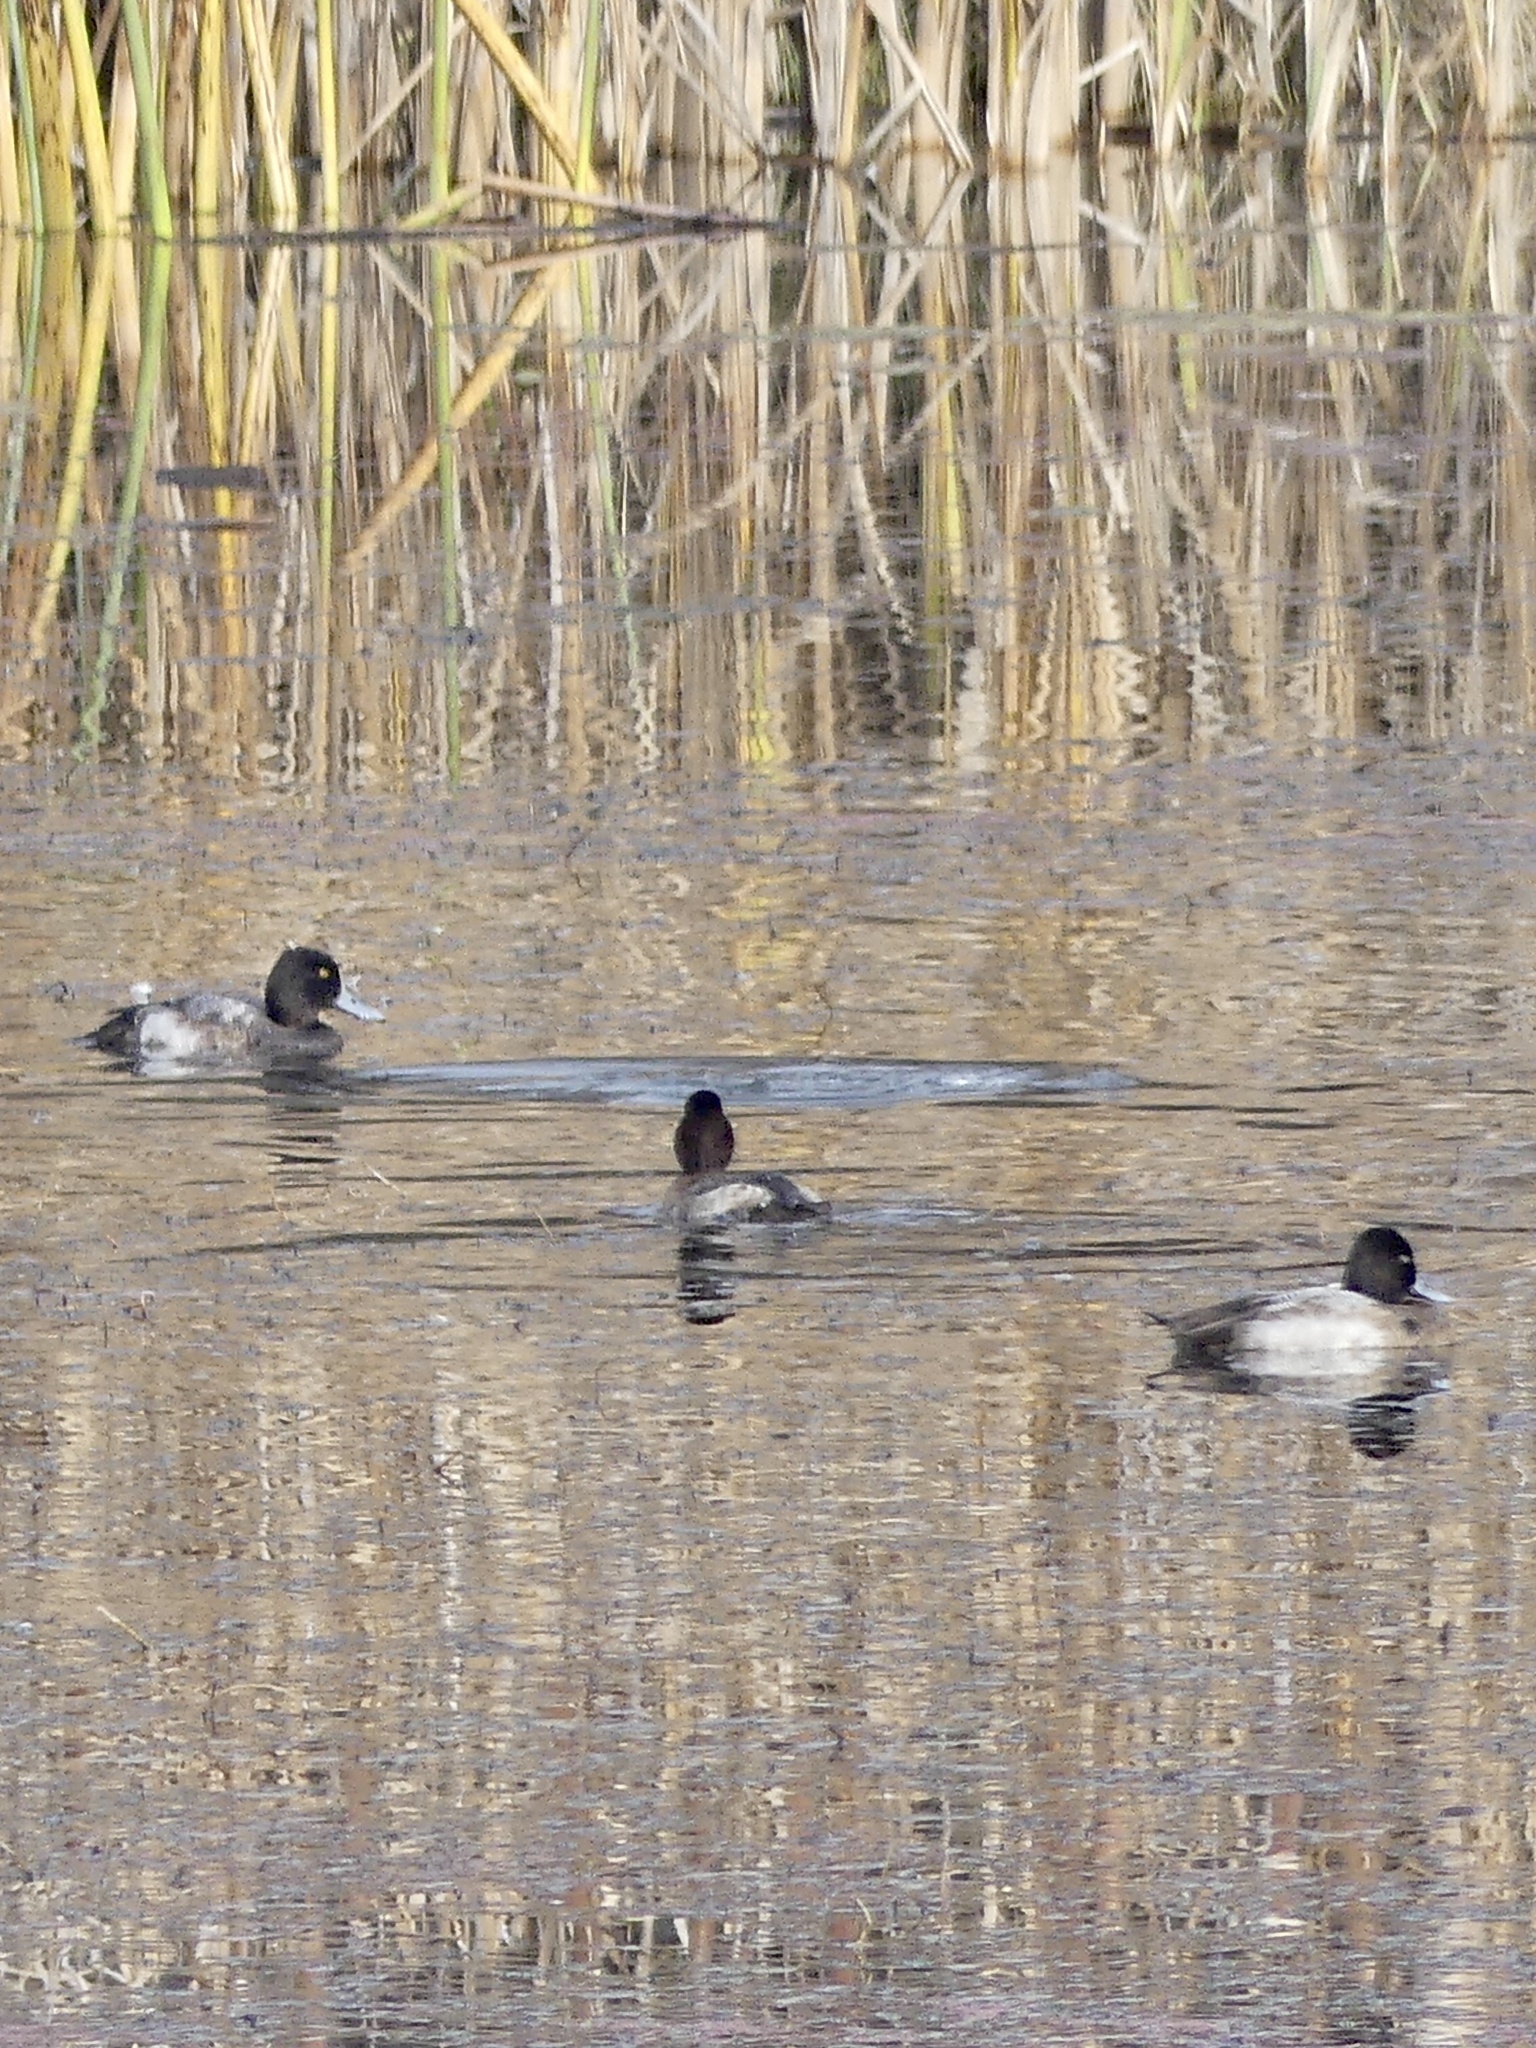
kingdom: Animalia
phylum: Chordata
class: Aves
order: Anseriformes
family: Anatidae
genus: Aythya
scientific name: Aythya affinis
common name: Lesser scaup
